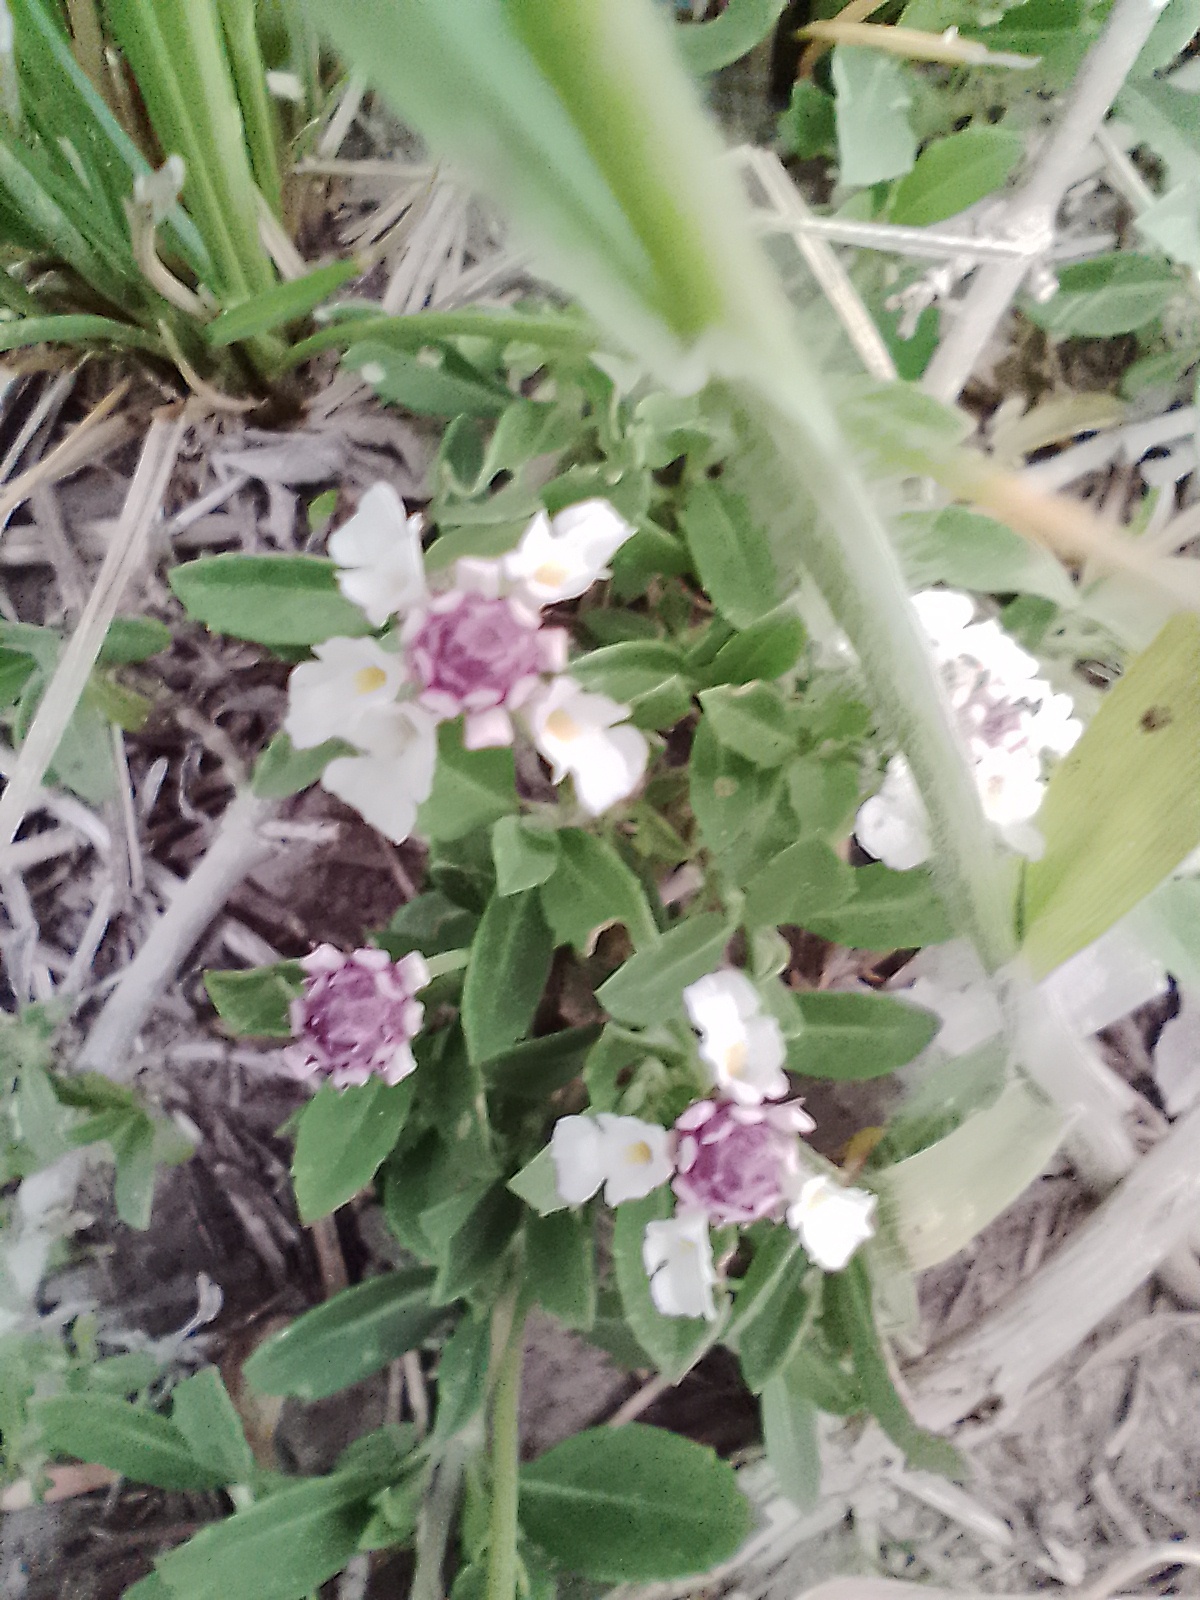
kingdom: Plantae
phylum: Tracheophyta
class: Magnoliopsida
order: Lamiales
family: Verbenaceae
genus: Phyla
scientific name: Phyla nodiflora
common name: Frogfruit
